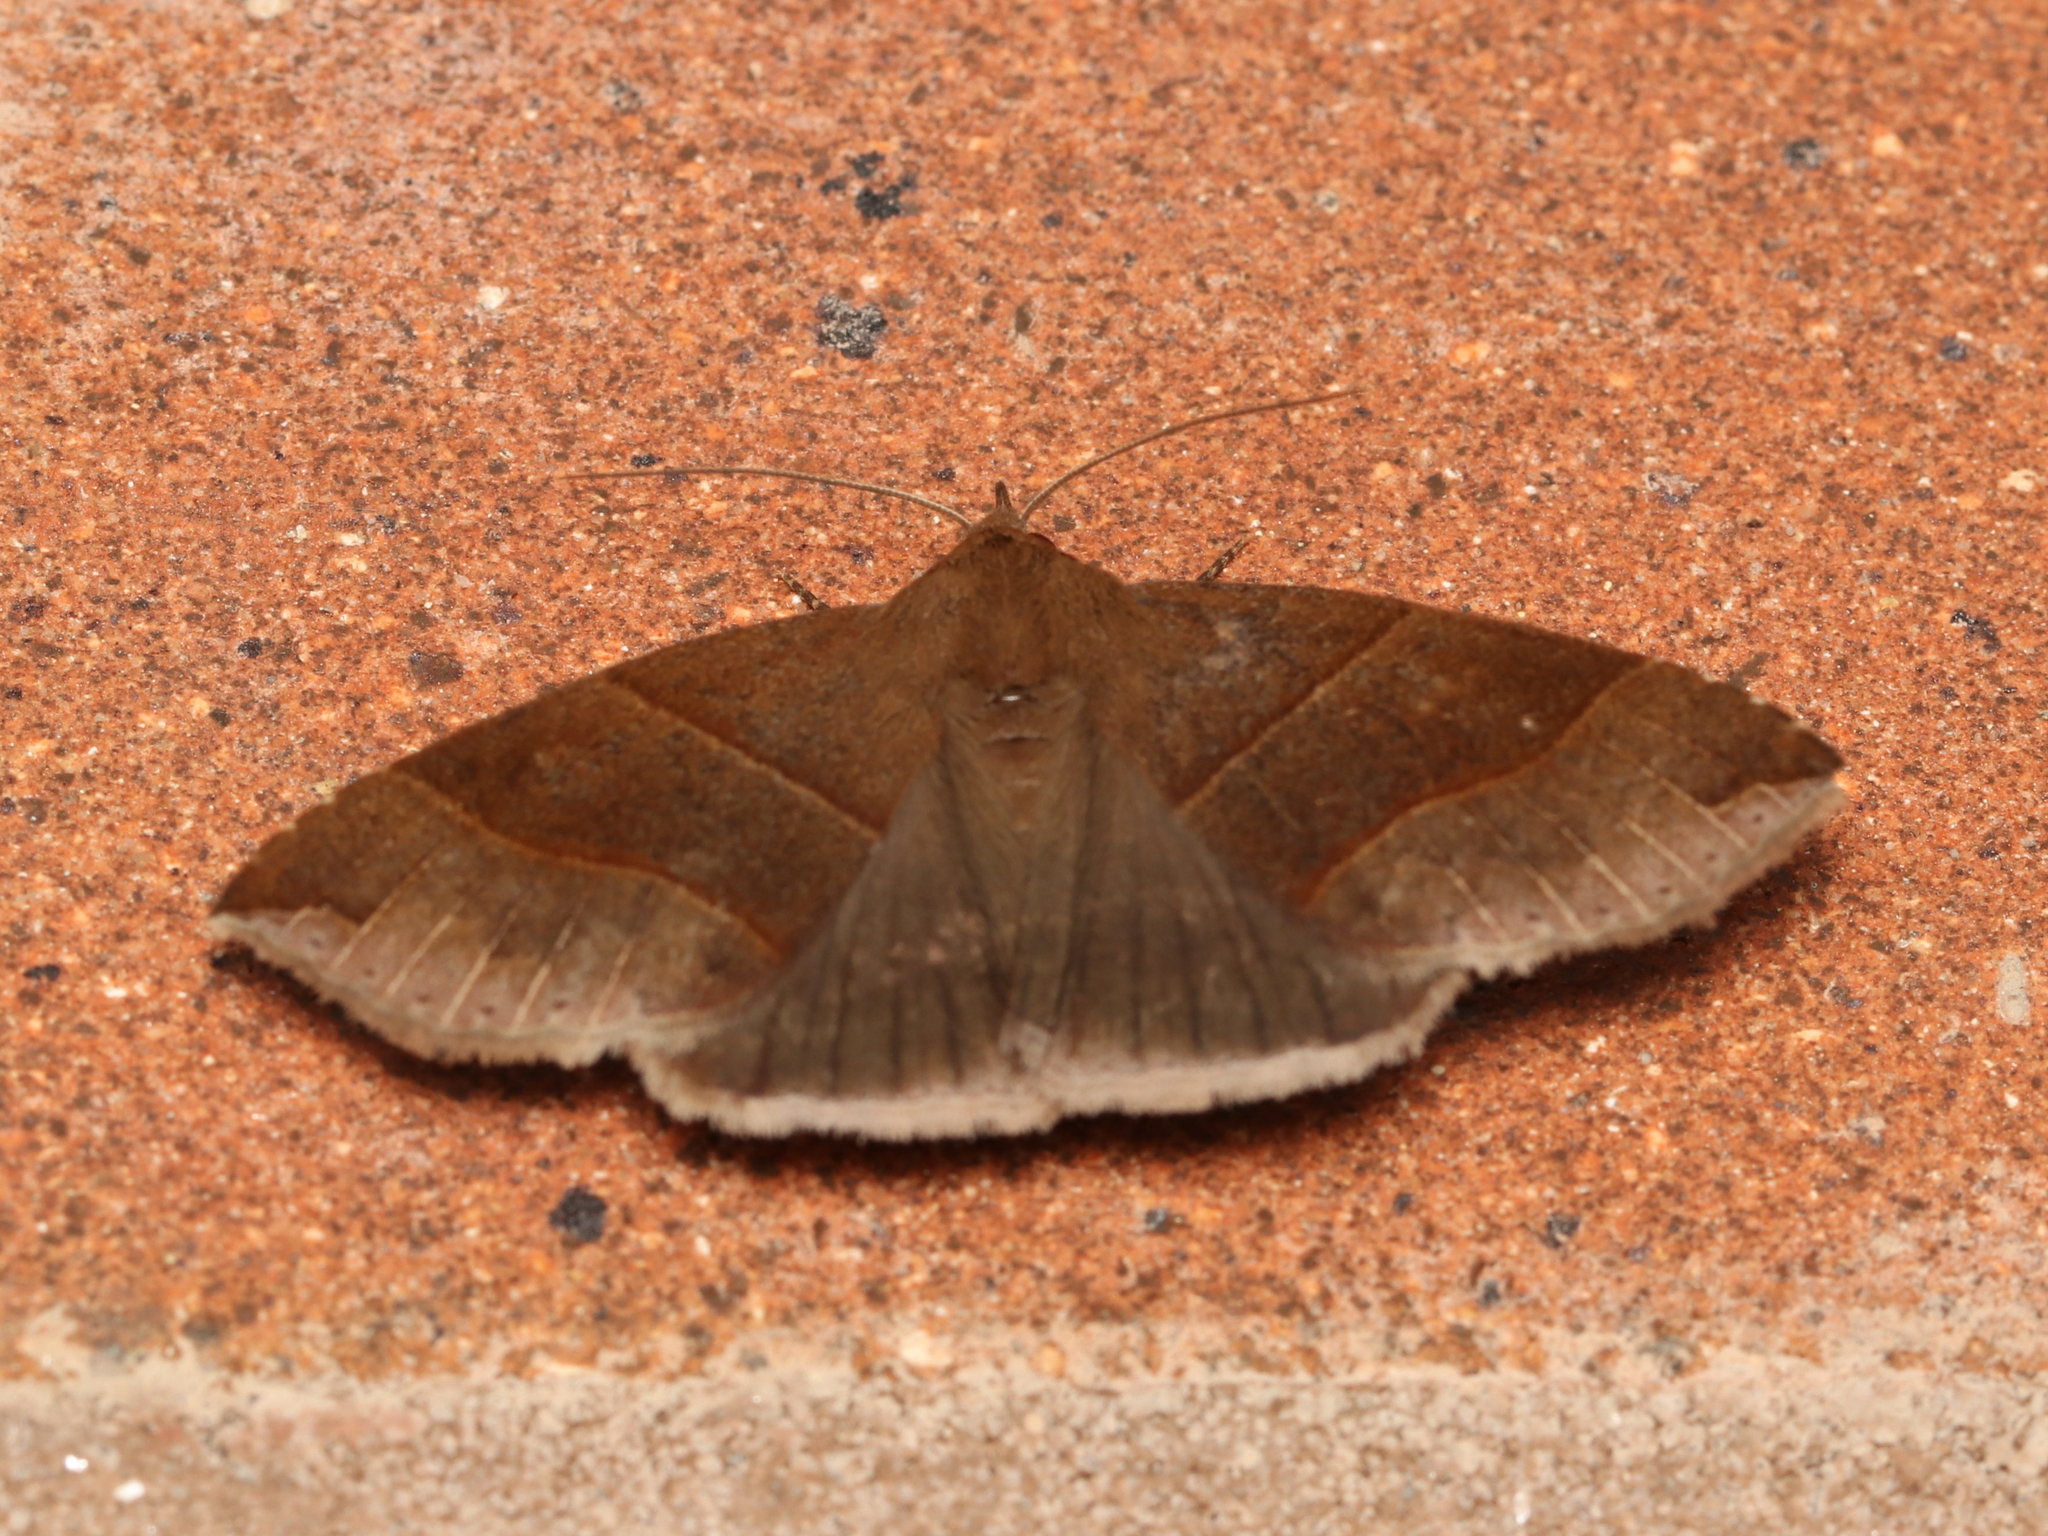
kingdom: Animalia
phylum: Arthropoda
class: Insecta
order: Lepidoptera
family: Erebidae
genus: Parallelia
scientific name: Parallelia bistriaris
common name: Maple looper moth
